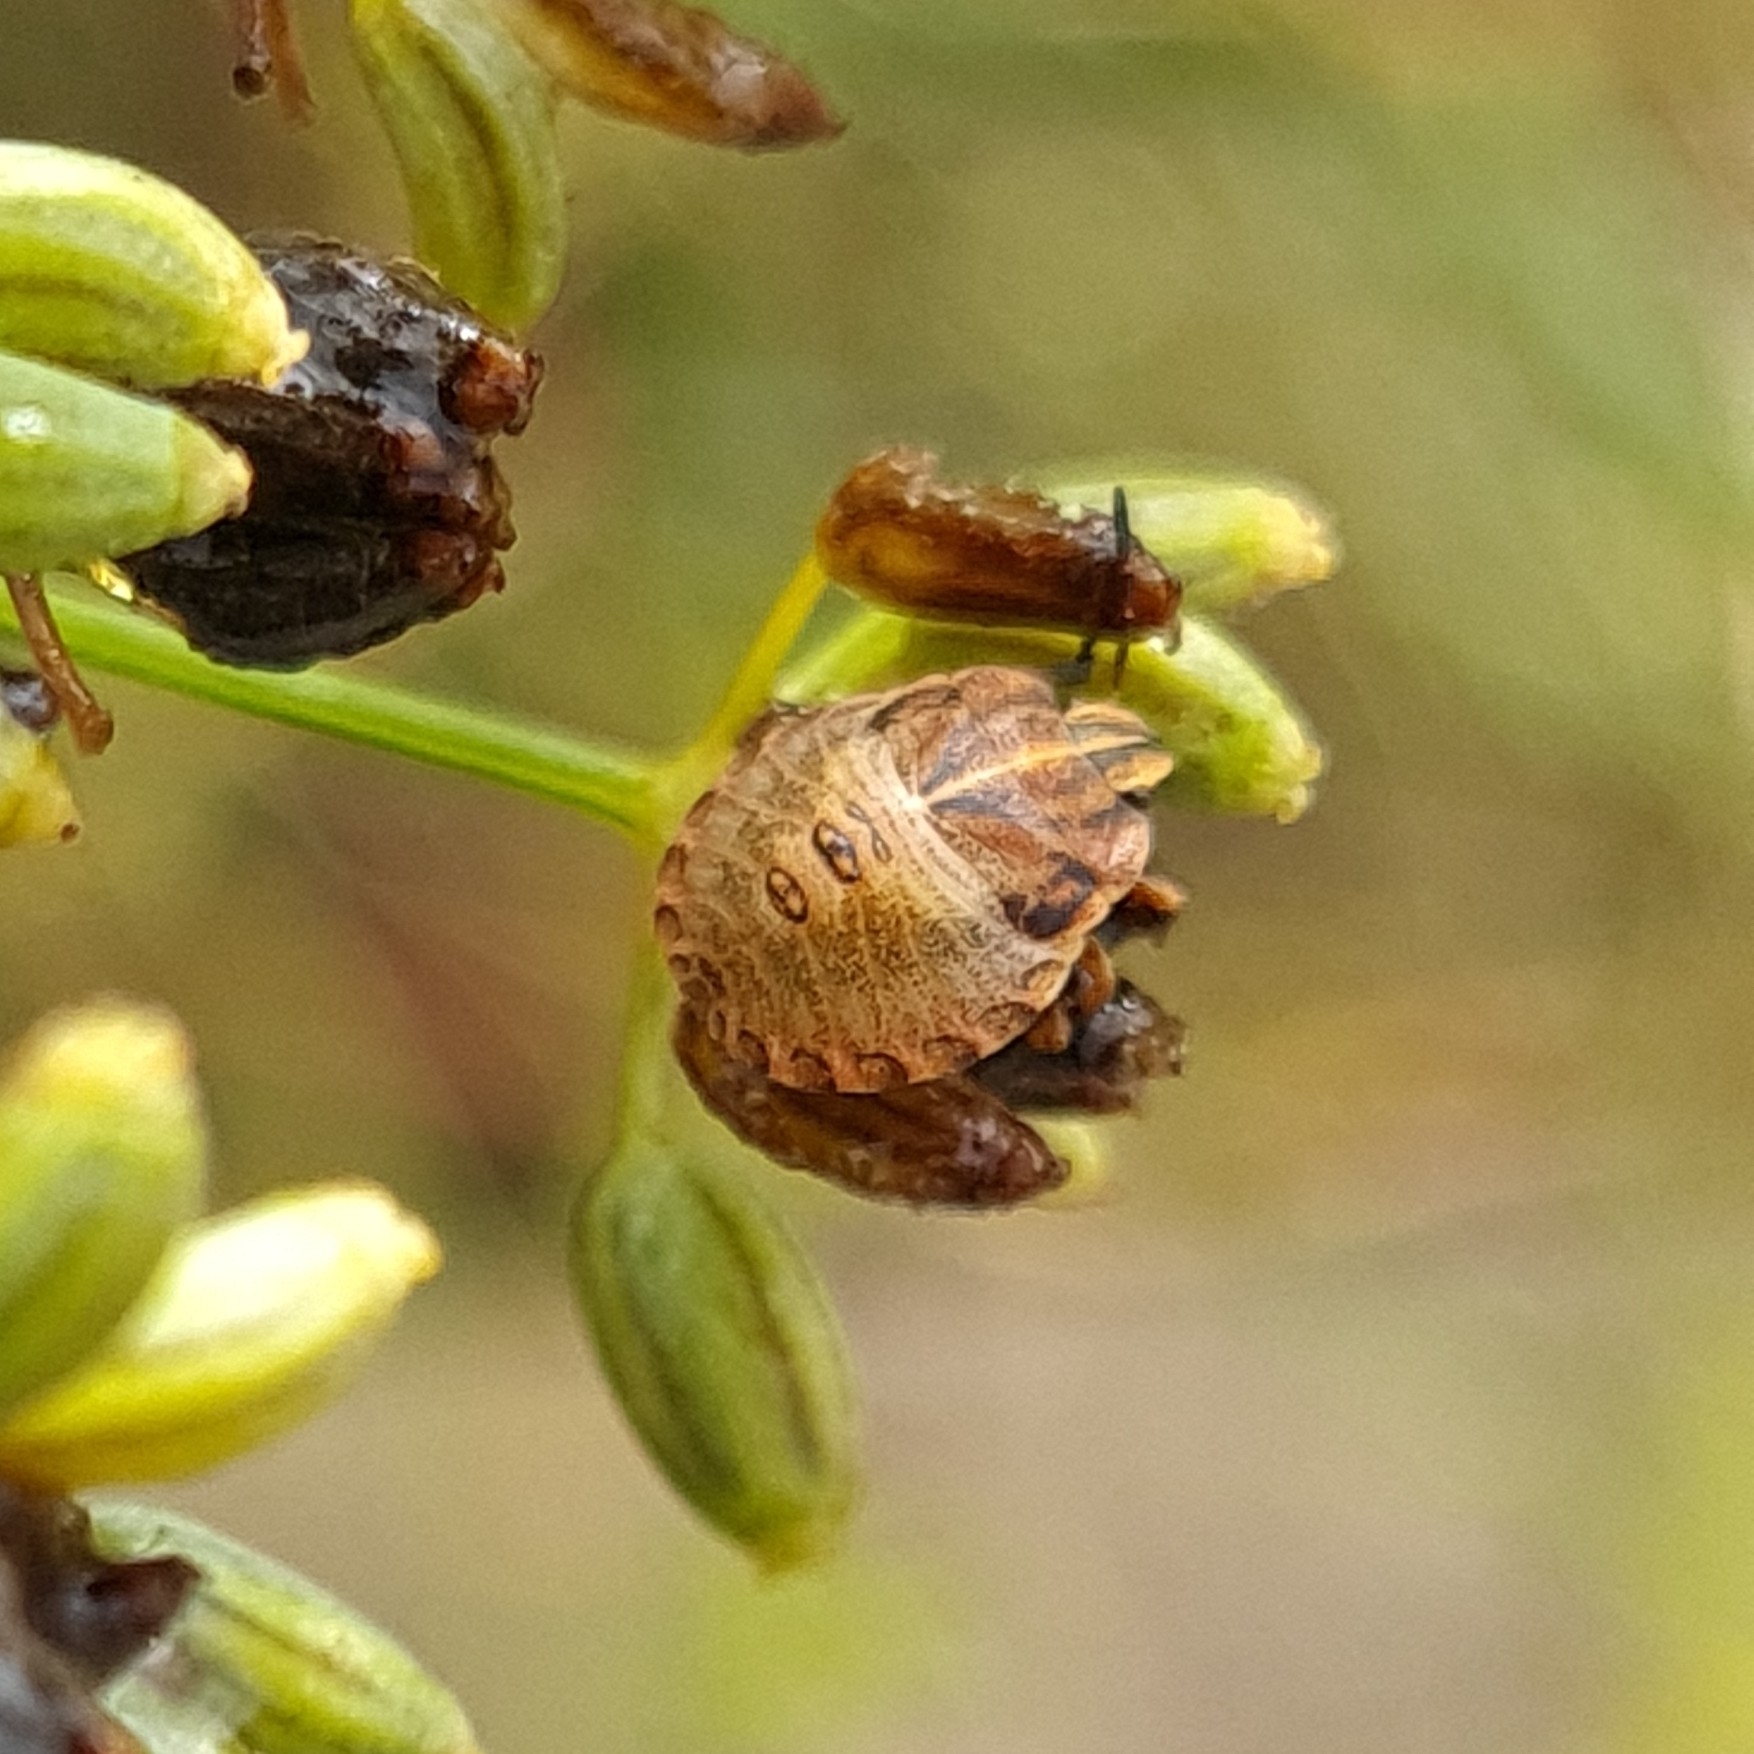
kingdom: Animalia
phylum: Arthropoda
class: Insecta
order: Hemiptera
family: Pentatomidae
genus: Graphosoma
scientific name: Graphosoma italicum
